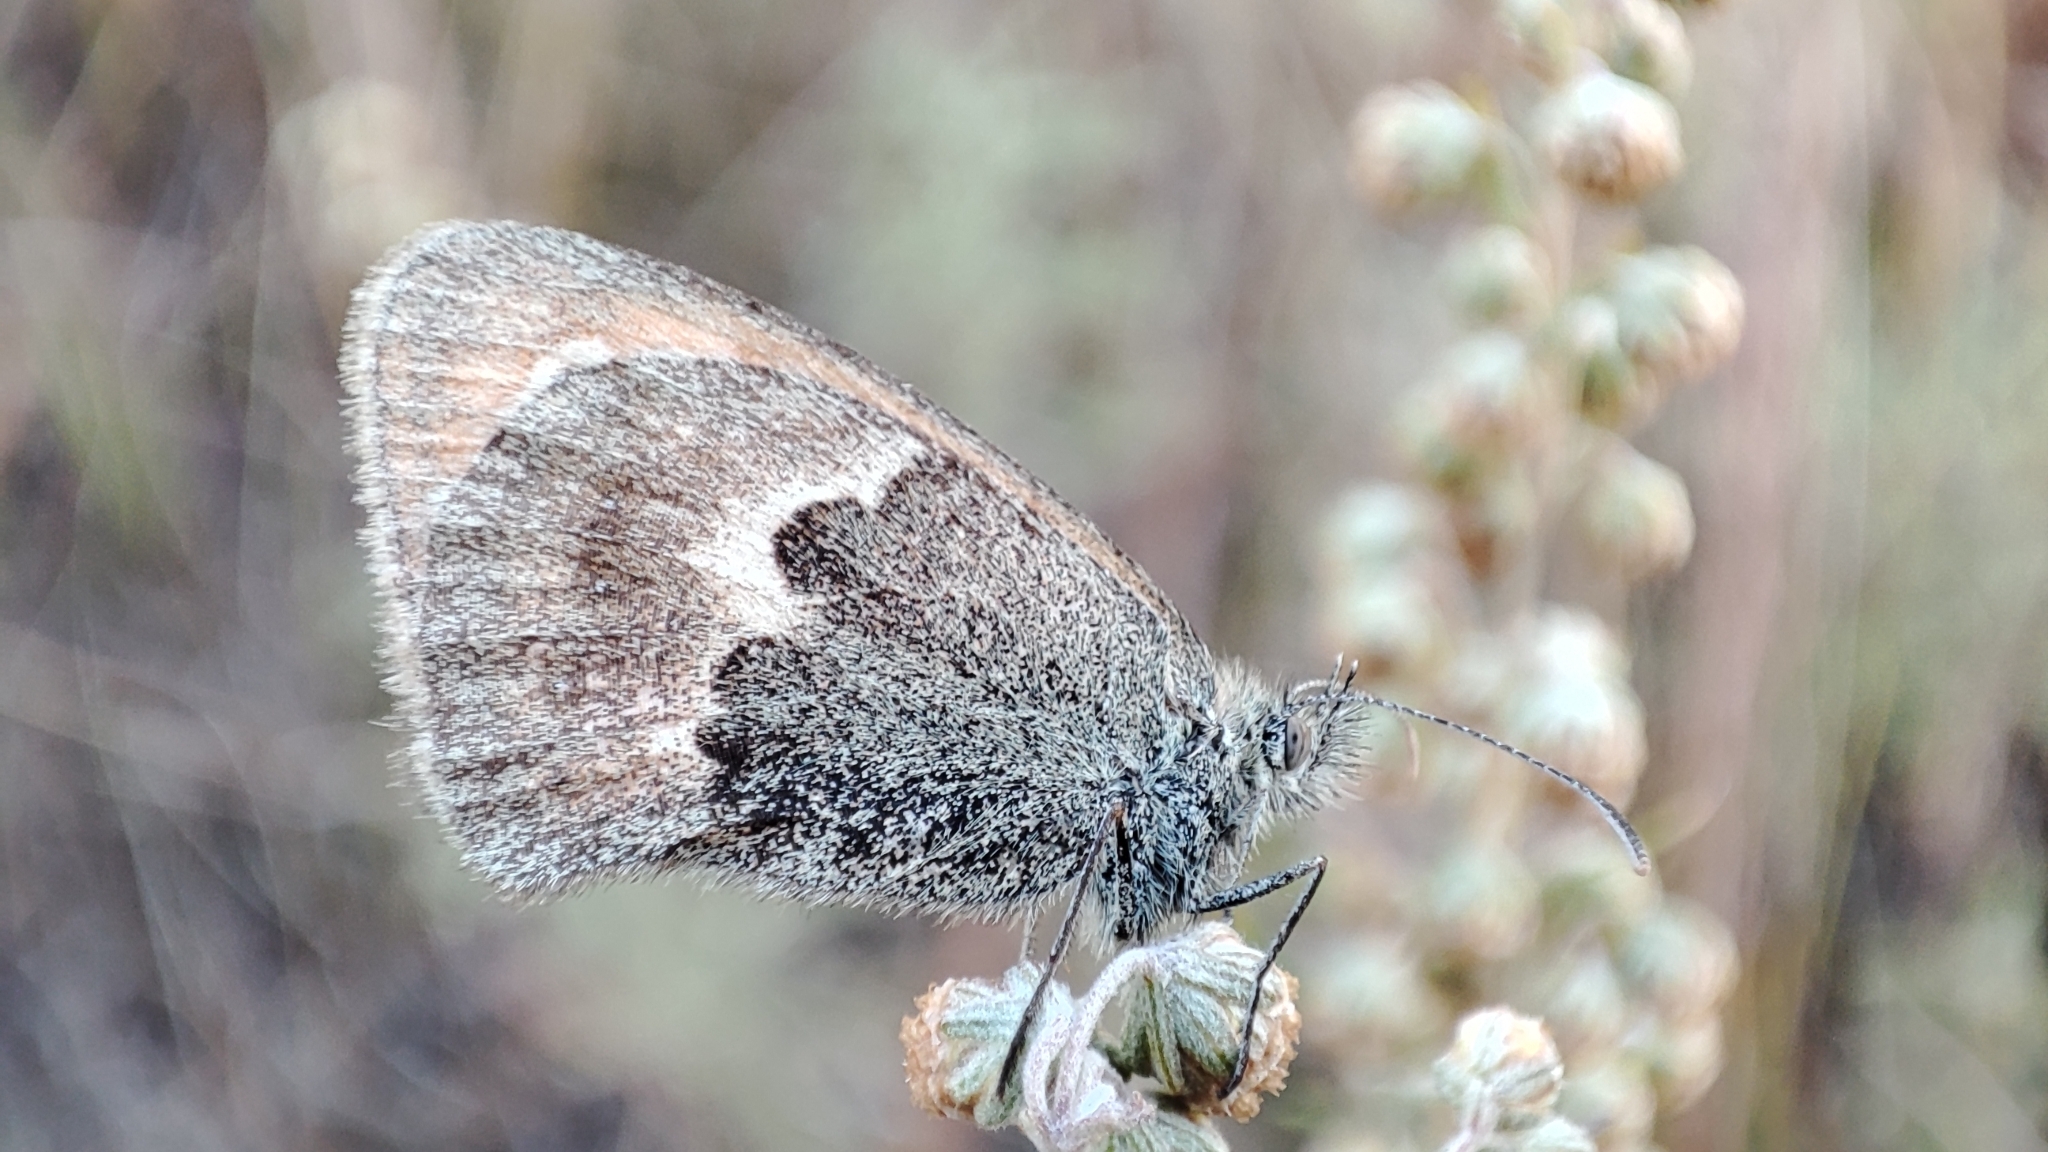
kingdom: Animalia
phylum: Arthropoda
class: Insecta
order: Lepidoptera
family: Nymphalidae
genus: Coenonympha
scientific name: Coenonympha pamphilus
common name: Small heath
